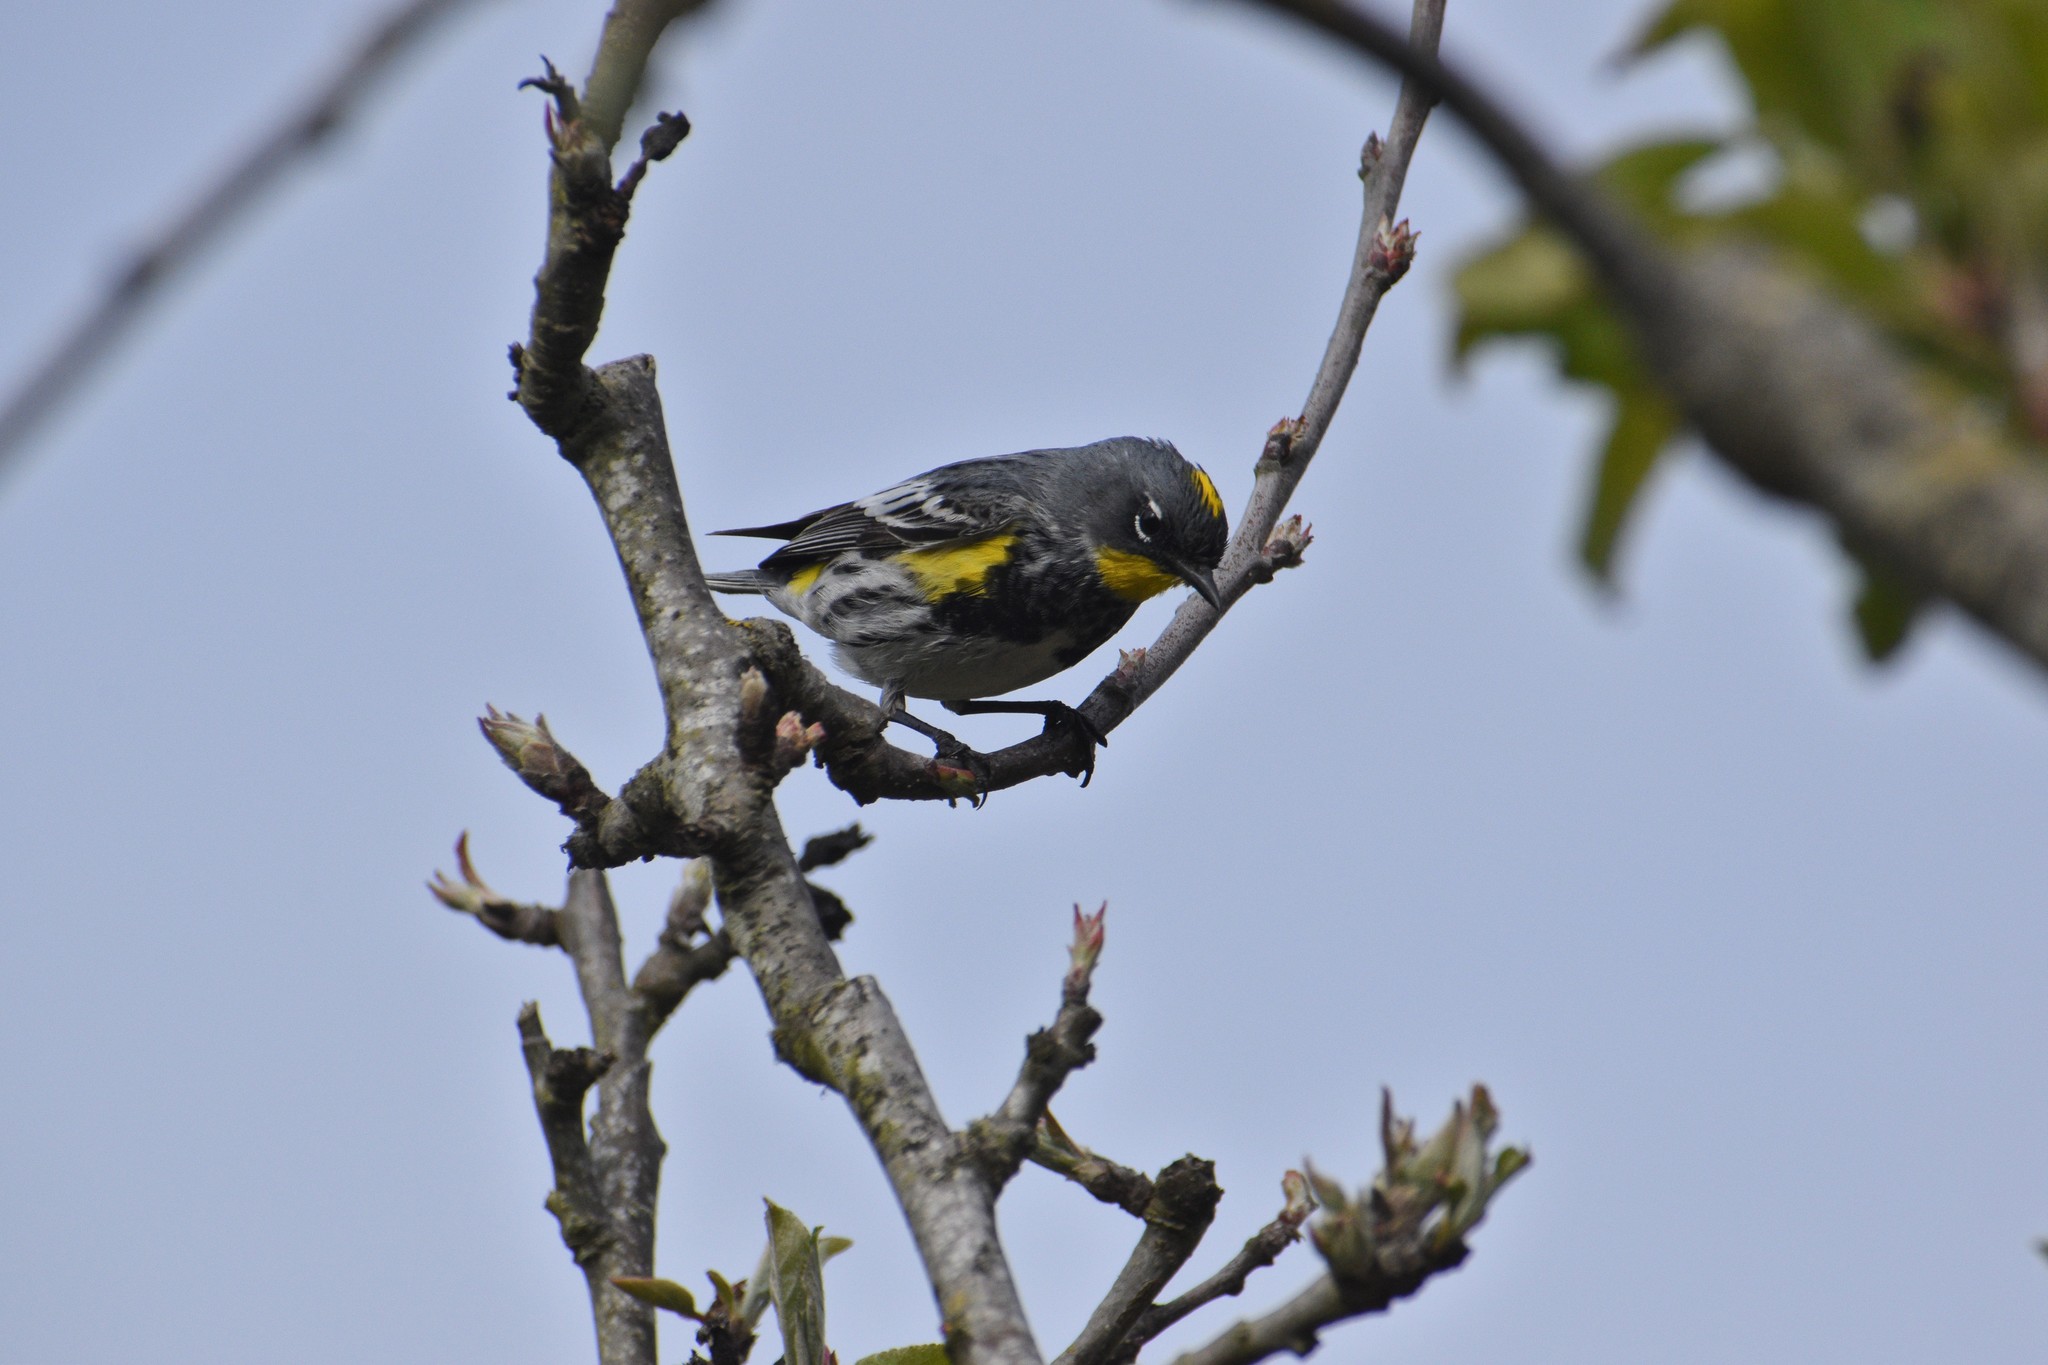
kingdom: Animalia
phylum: Chordata
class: Aves
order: Passeriformes
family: Parulidae
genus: Setophaga
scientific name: Setophaga coronata
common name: Myrtle warbler
